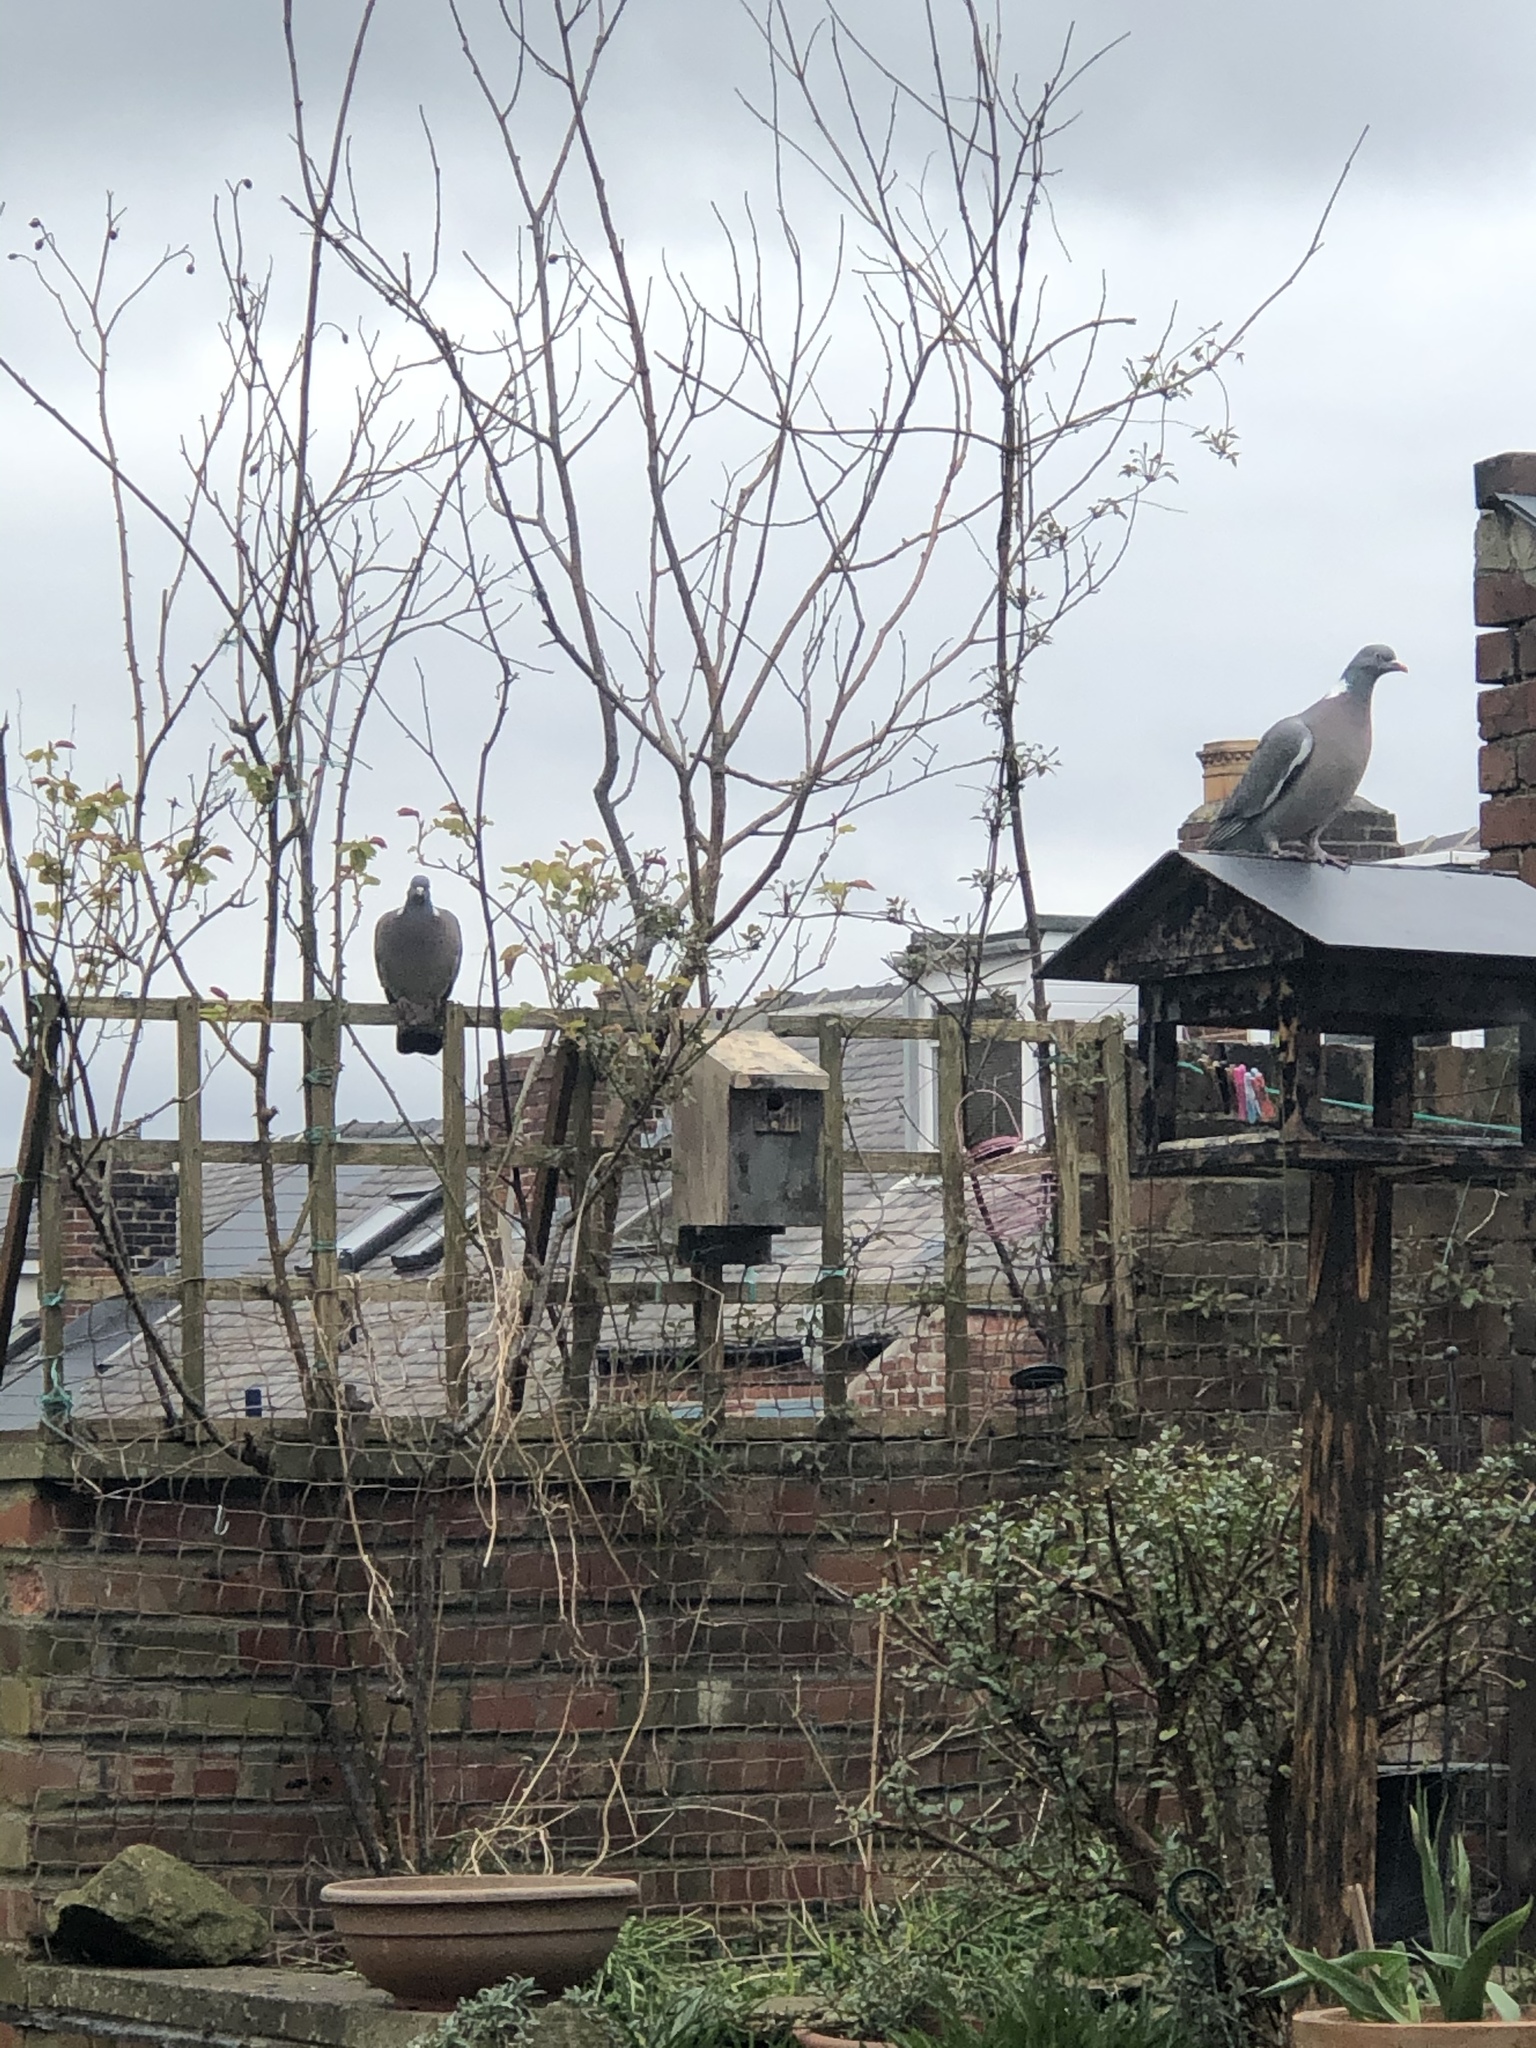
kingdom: Animalia
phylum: Chordata
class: Aves
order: Columbiformes
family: Columbidae
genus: Columba
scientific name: Columba palumbus
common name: Common wood pigeon
